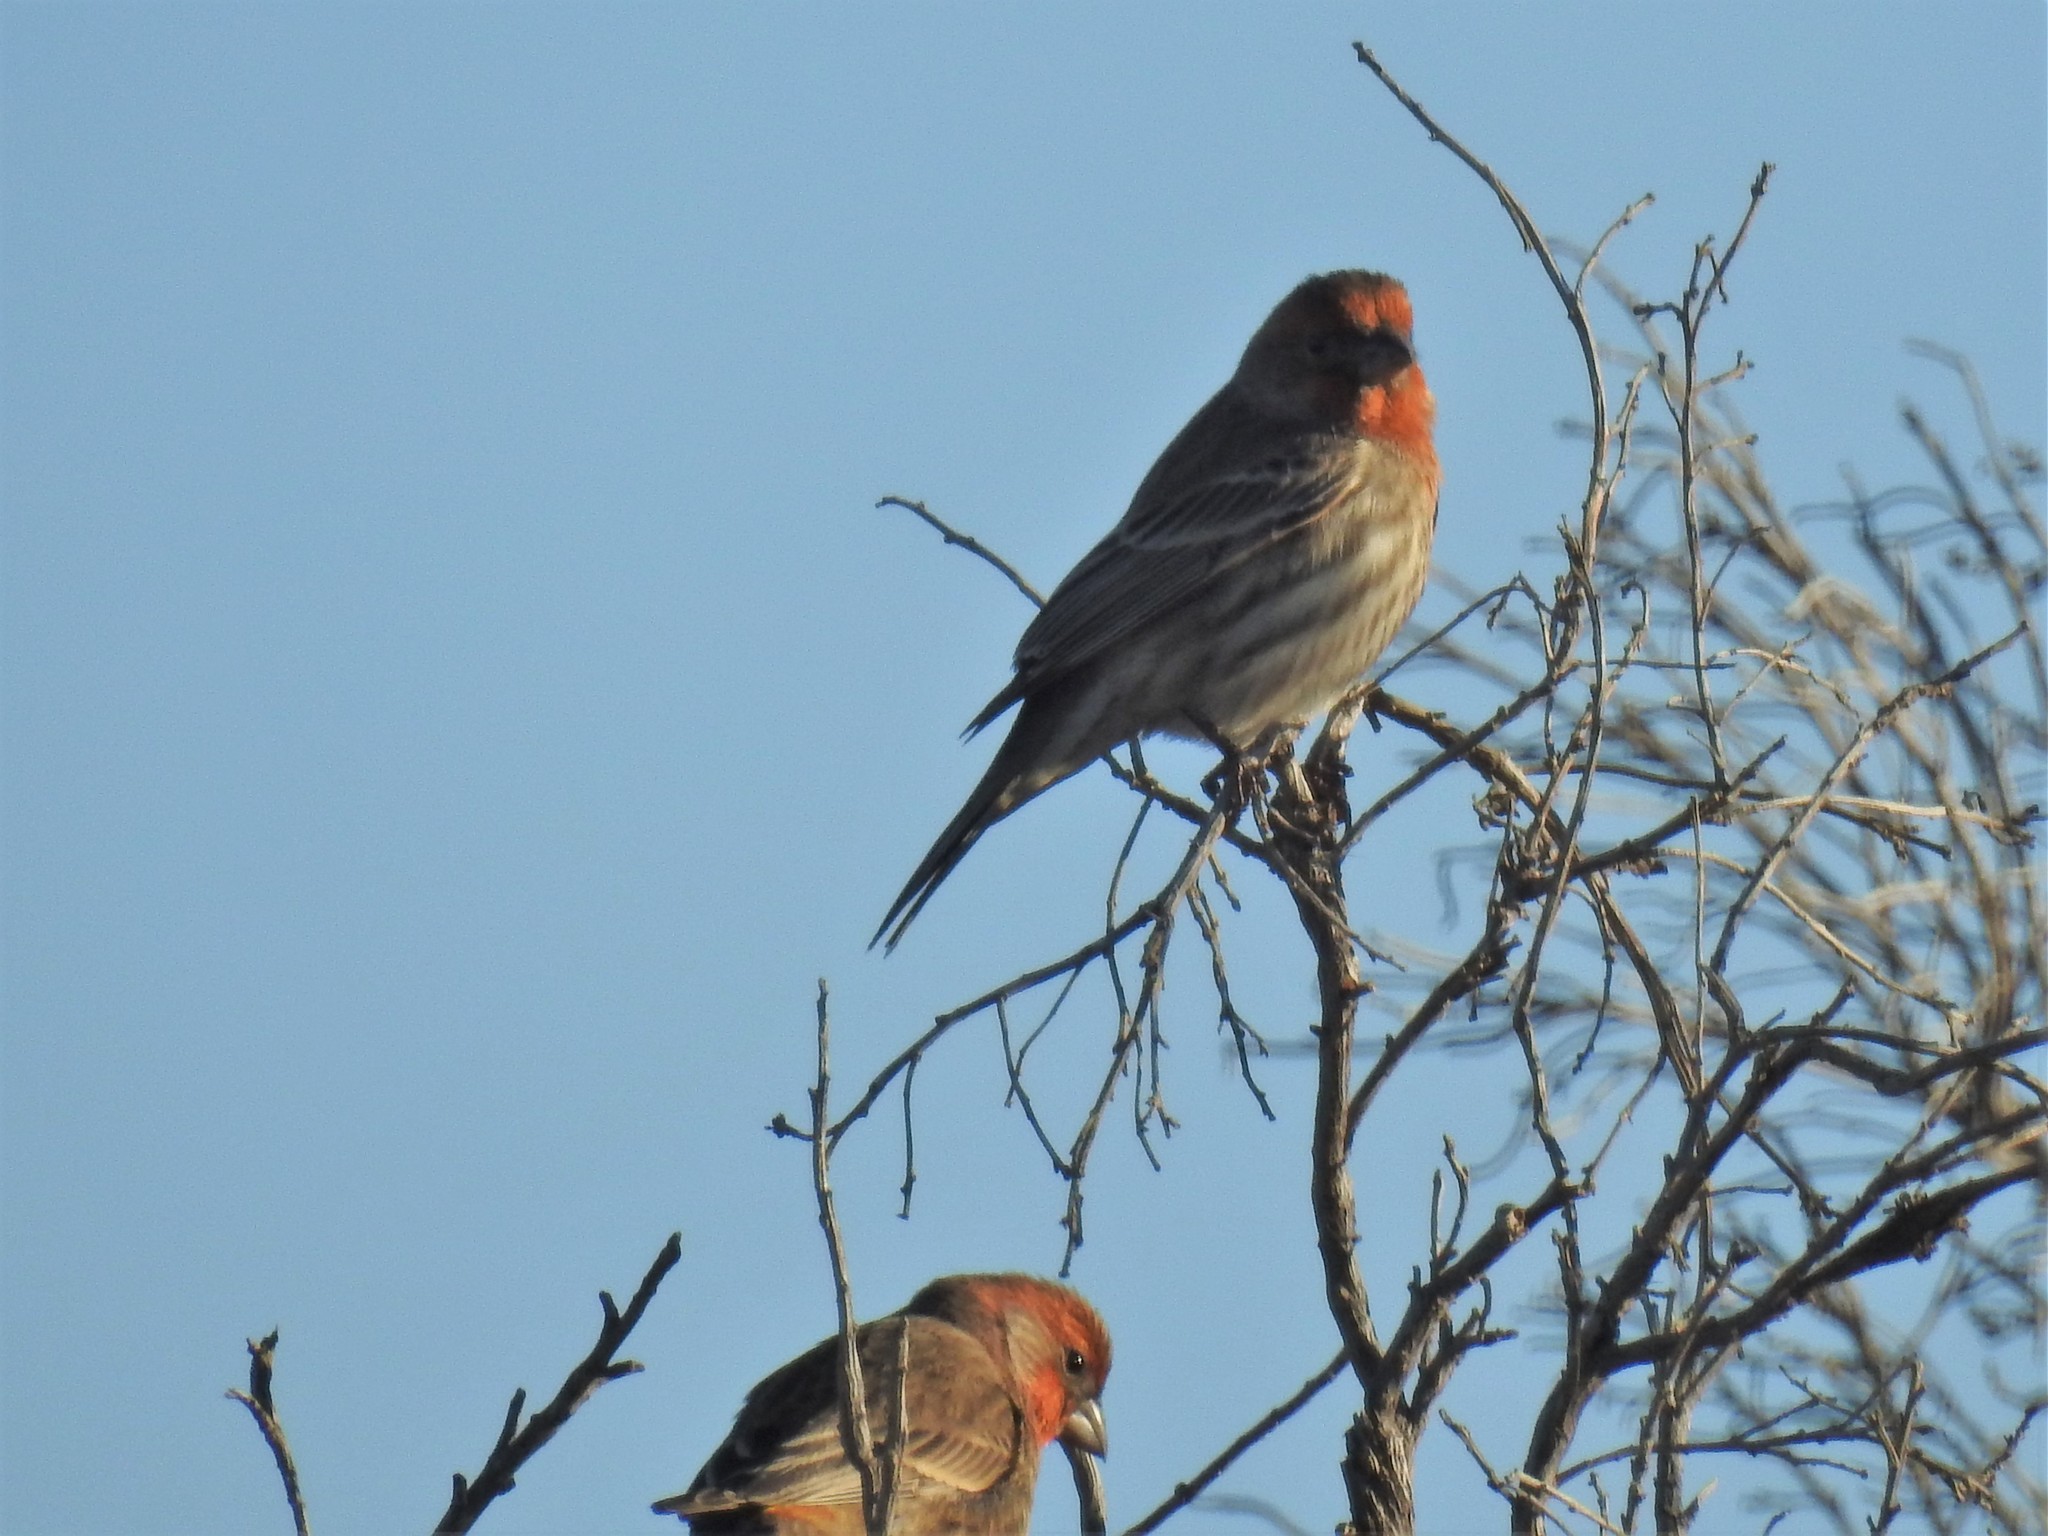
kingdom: Animalia
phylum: Chordata
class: Aves
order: Passeriformes
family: Fringillidae
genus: Haemorhous
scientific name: Haemorhous mexicanus
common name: House finch
